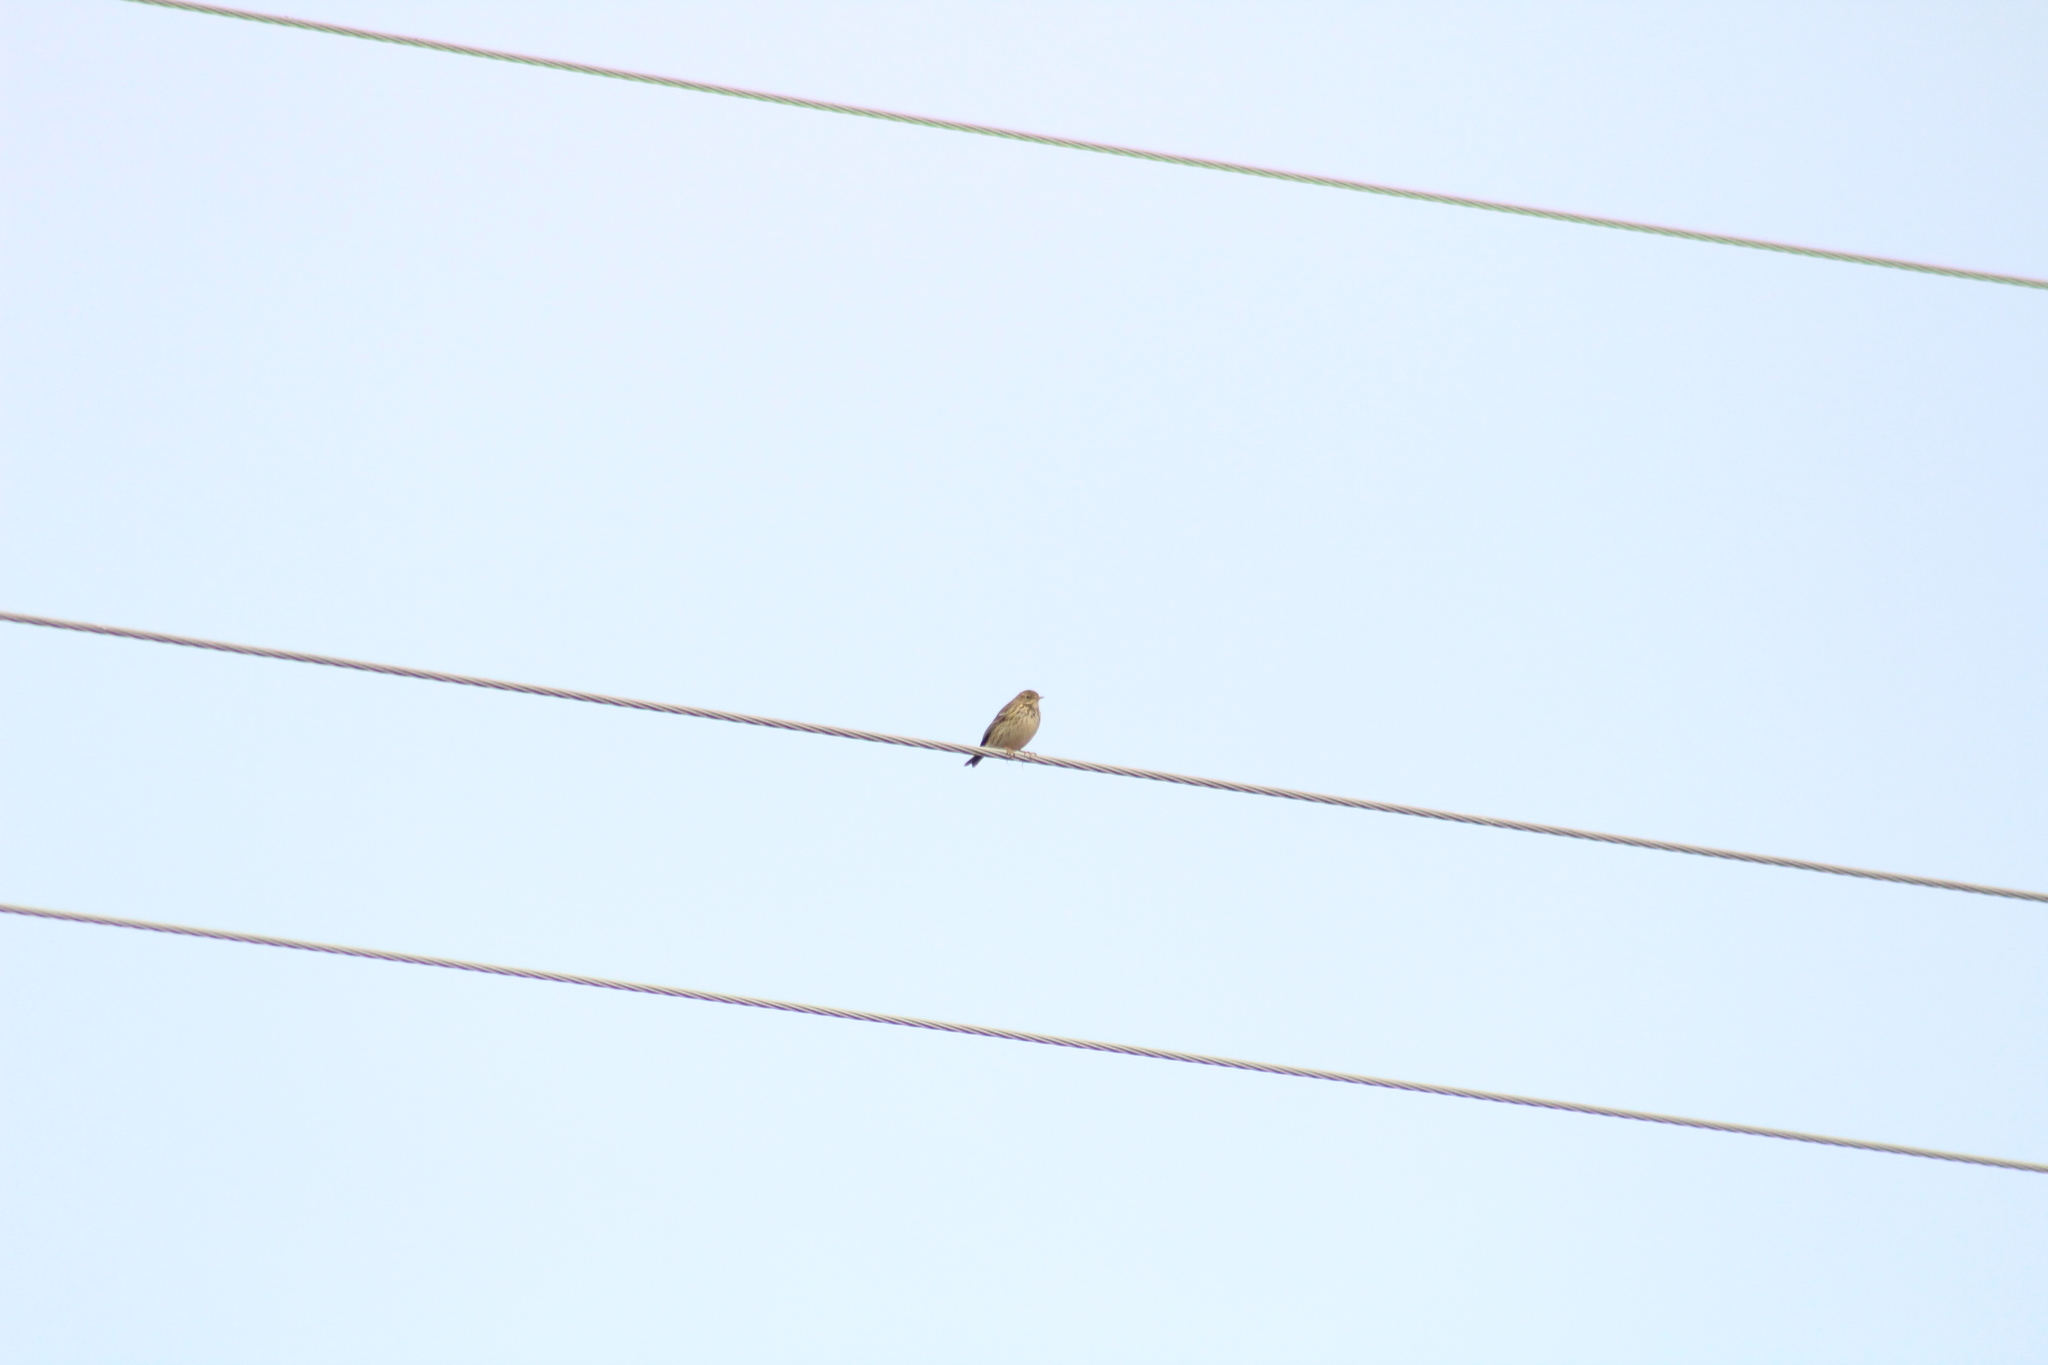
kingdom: Animalia
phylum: Chordata
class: Aves
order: Passeriformes
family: Motacillidae
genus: Anthus
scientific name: Anthus pratensis
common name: Meadow pipit
